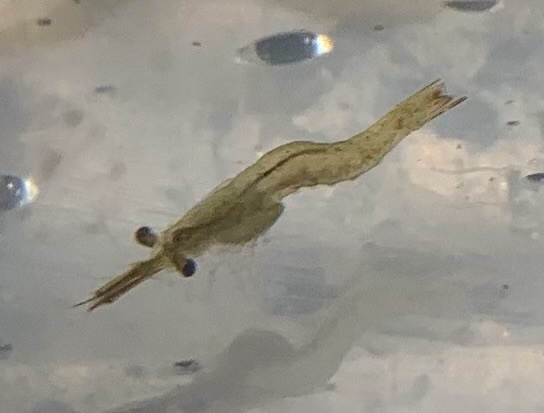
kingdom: Animalia
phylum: Arthropoda
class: Malacostraca
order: Mysida
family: Mysidae
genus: Praunus
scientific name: Praunus flexuosus
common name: Chameleon shrimp
